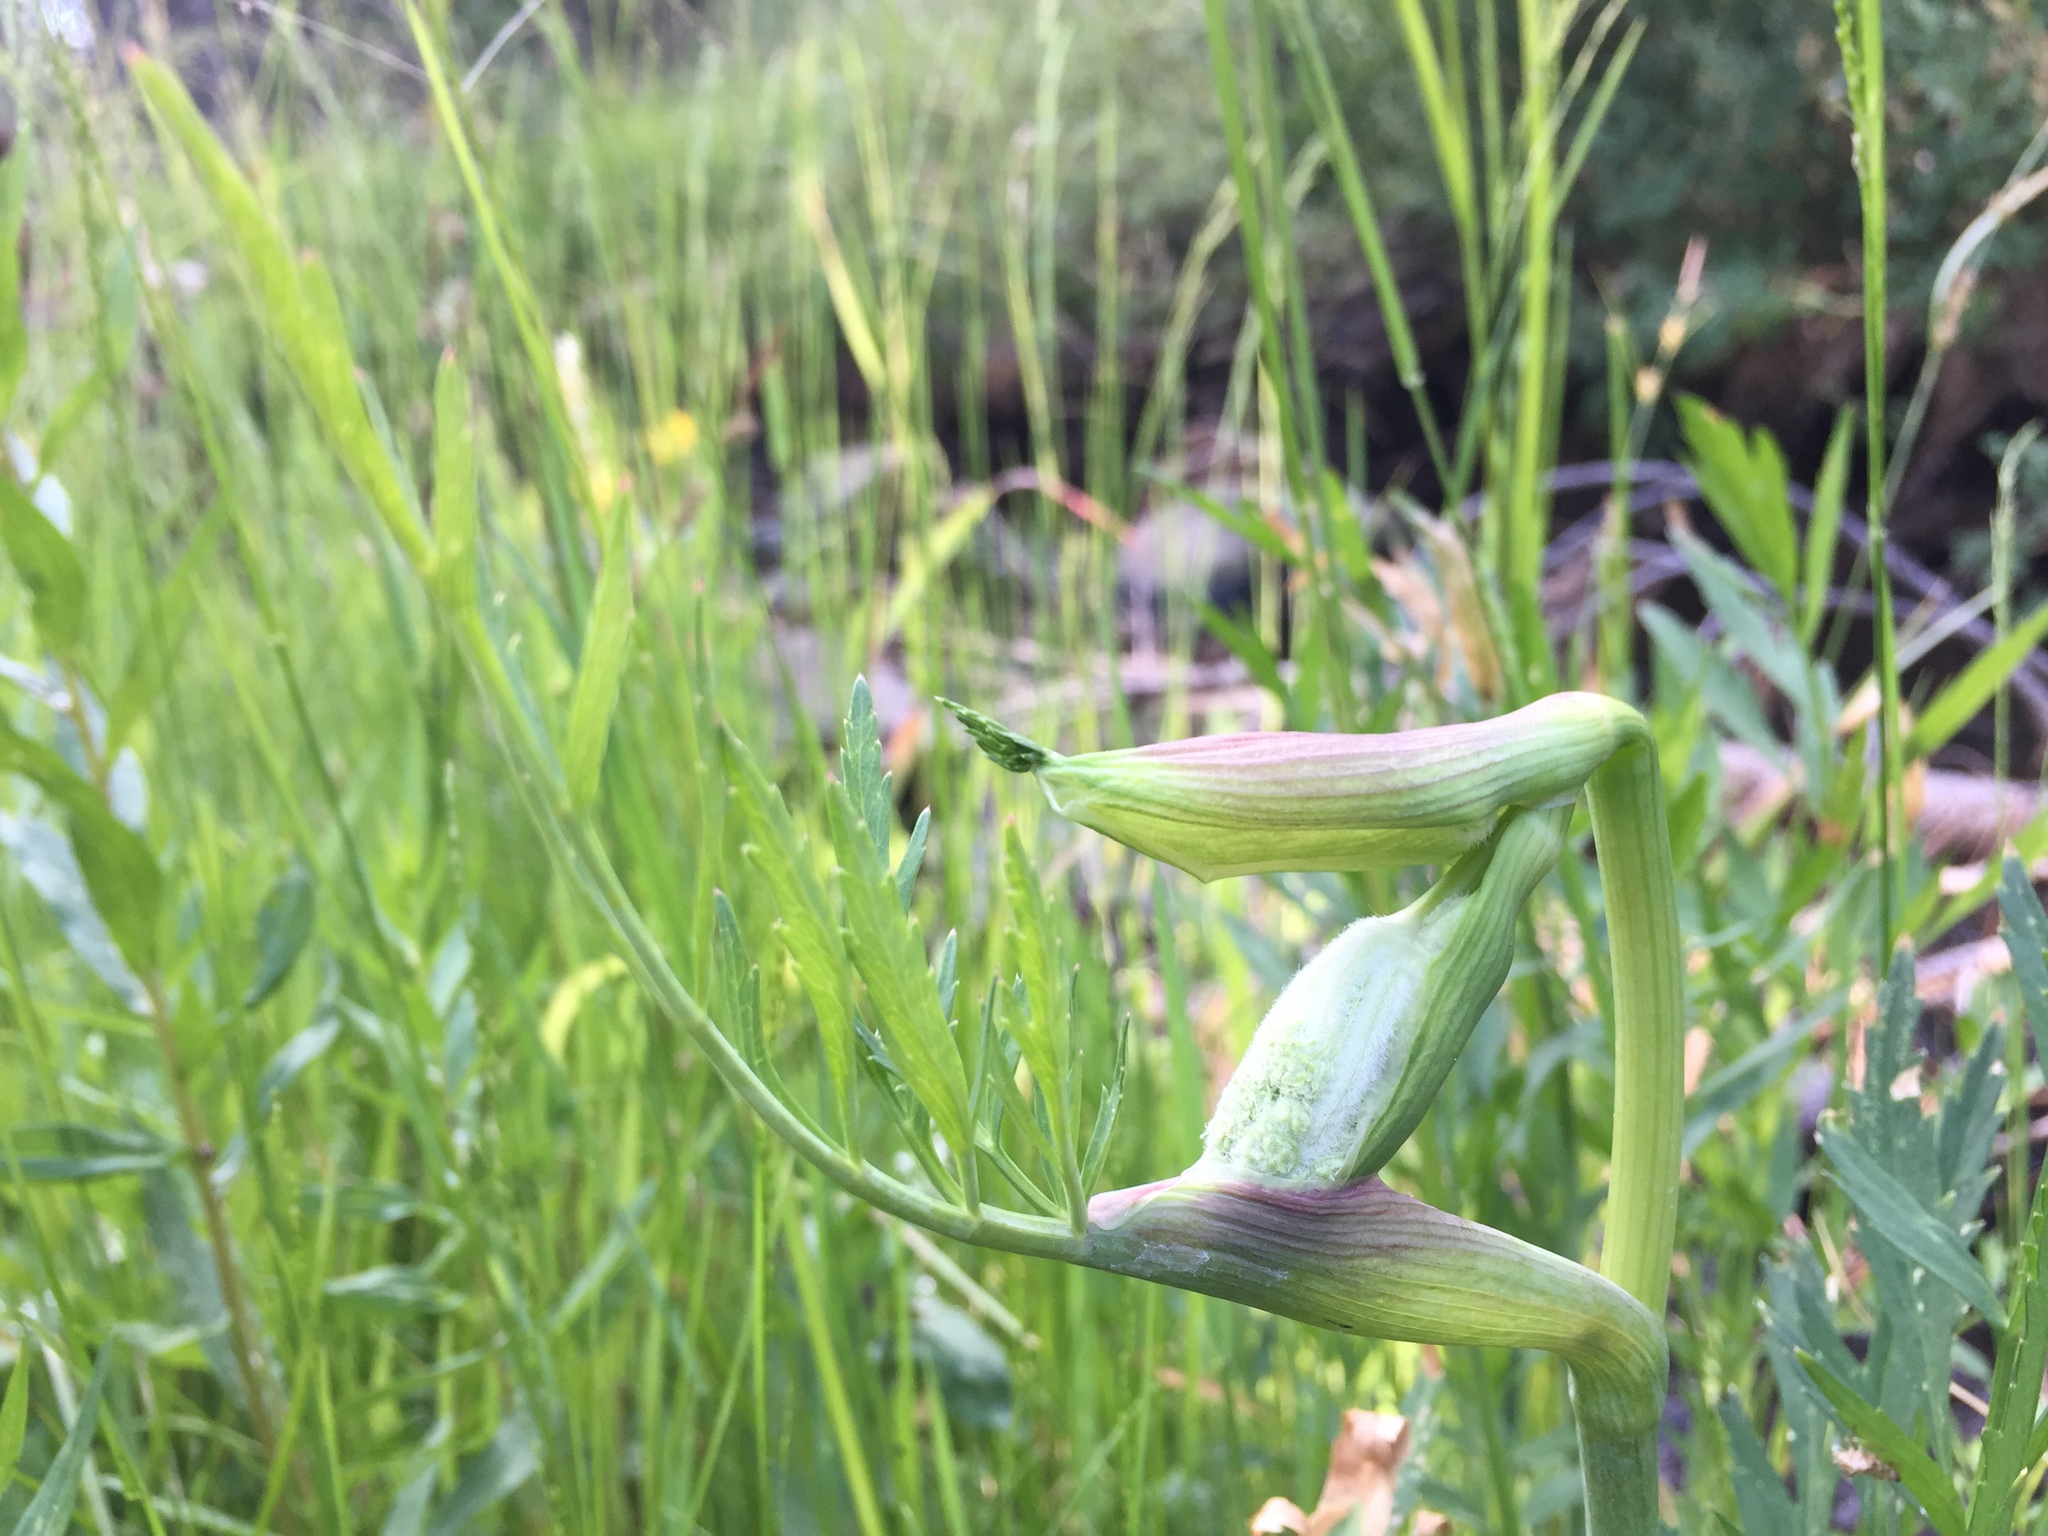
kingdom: Plantae
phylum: Tracheophyta
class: Magnoliopsida
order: Apiales
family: Apiaceae
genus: Angelica
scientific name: Angelica capitellata
